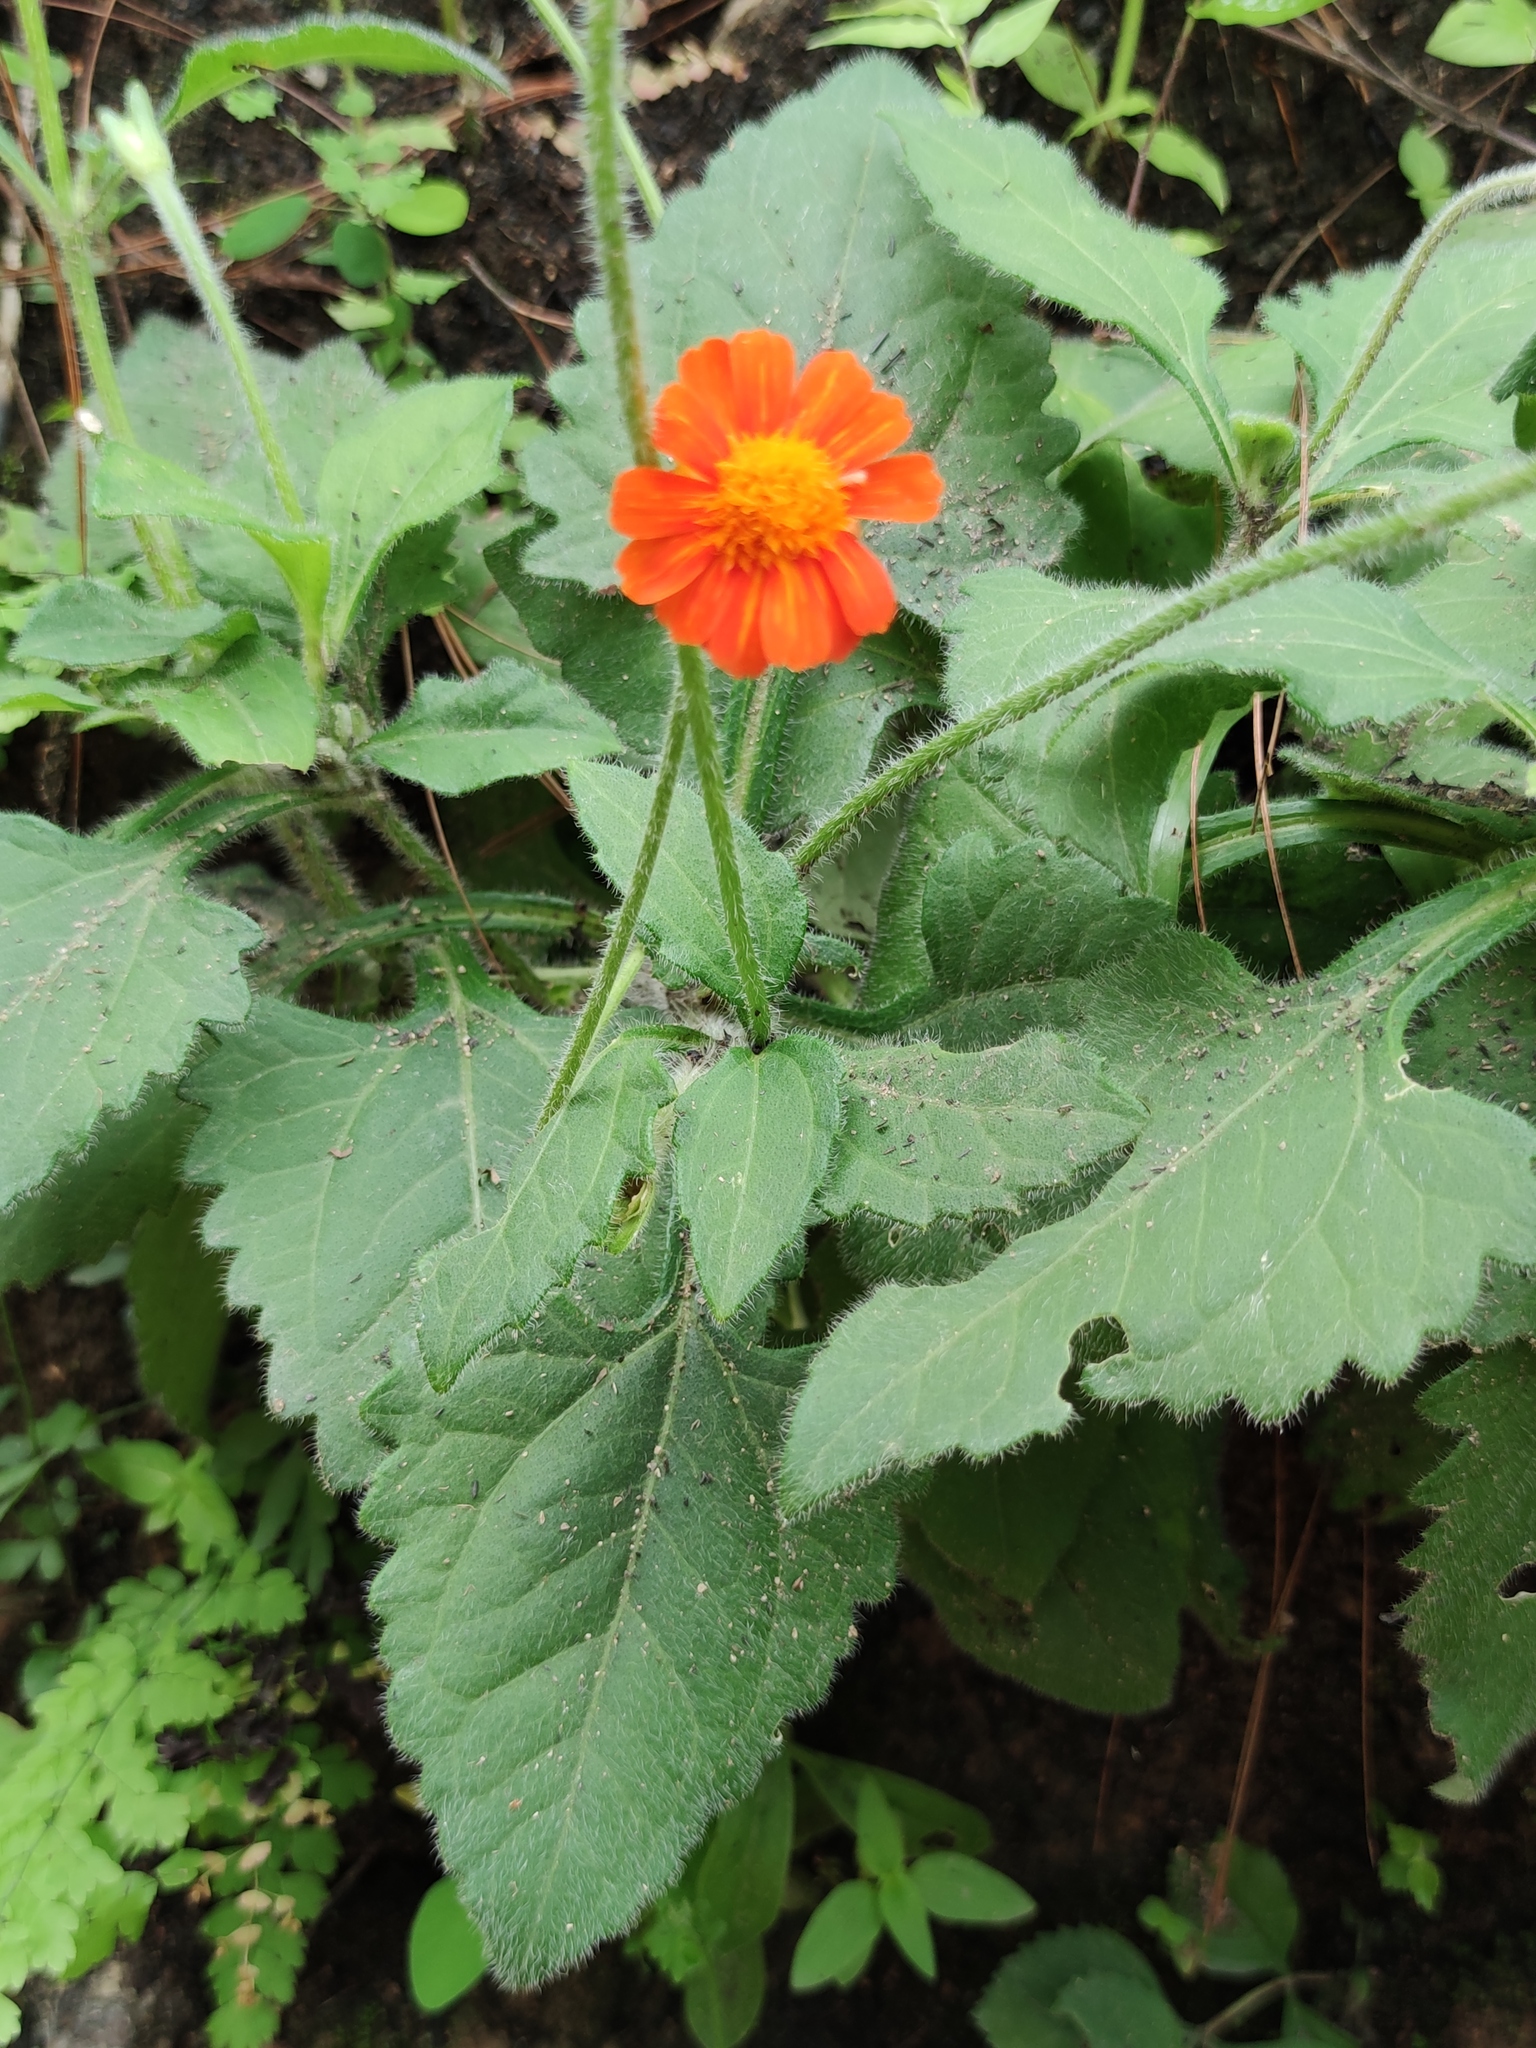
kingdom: Plantae
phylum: Tracheophyta
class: Magnoliopsida
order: Asterales
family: Asteraceae
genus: Calea
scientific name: Calea
